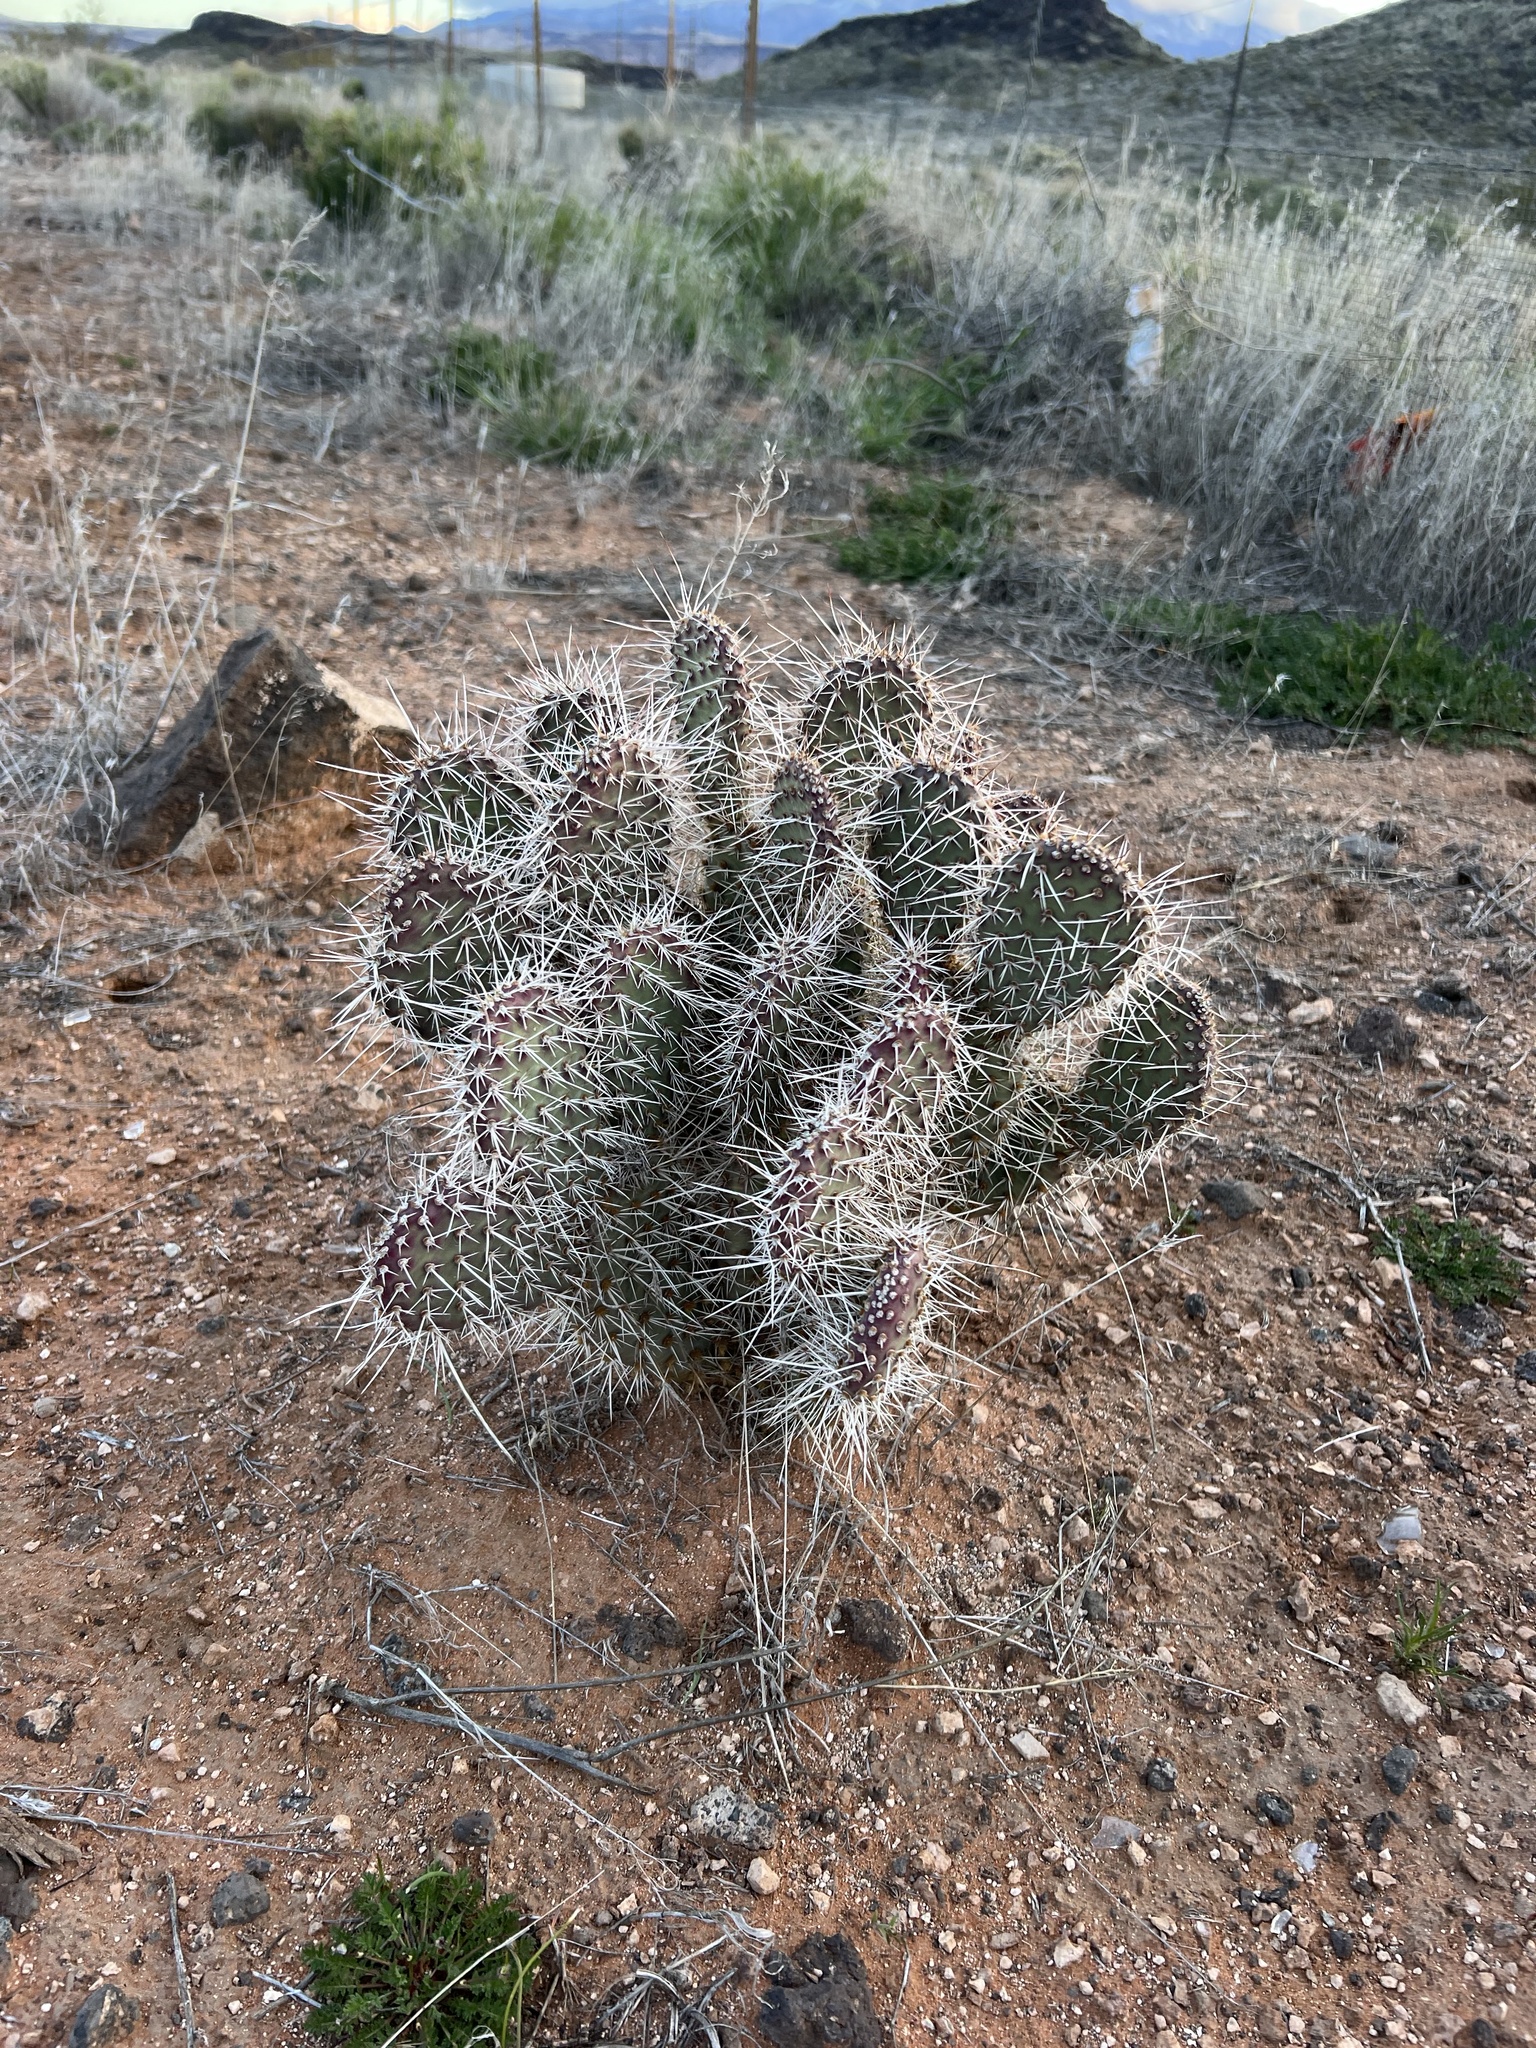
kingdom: Plantae
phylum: Tracheophyta
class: Magnoliopsida
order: Caryophyllales
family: Cactaceae
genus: Opuntia
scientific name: Opuntia polyacantha
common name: Plains prickly-pear
